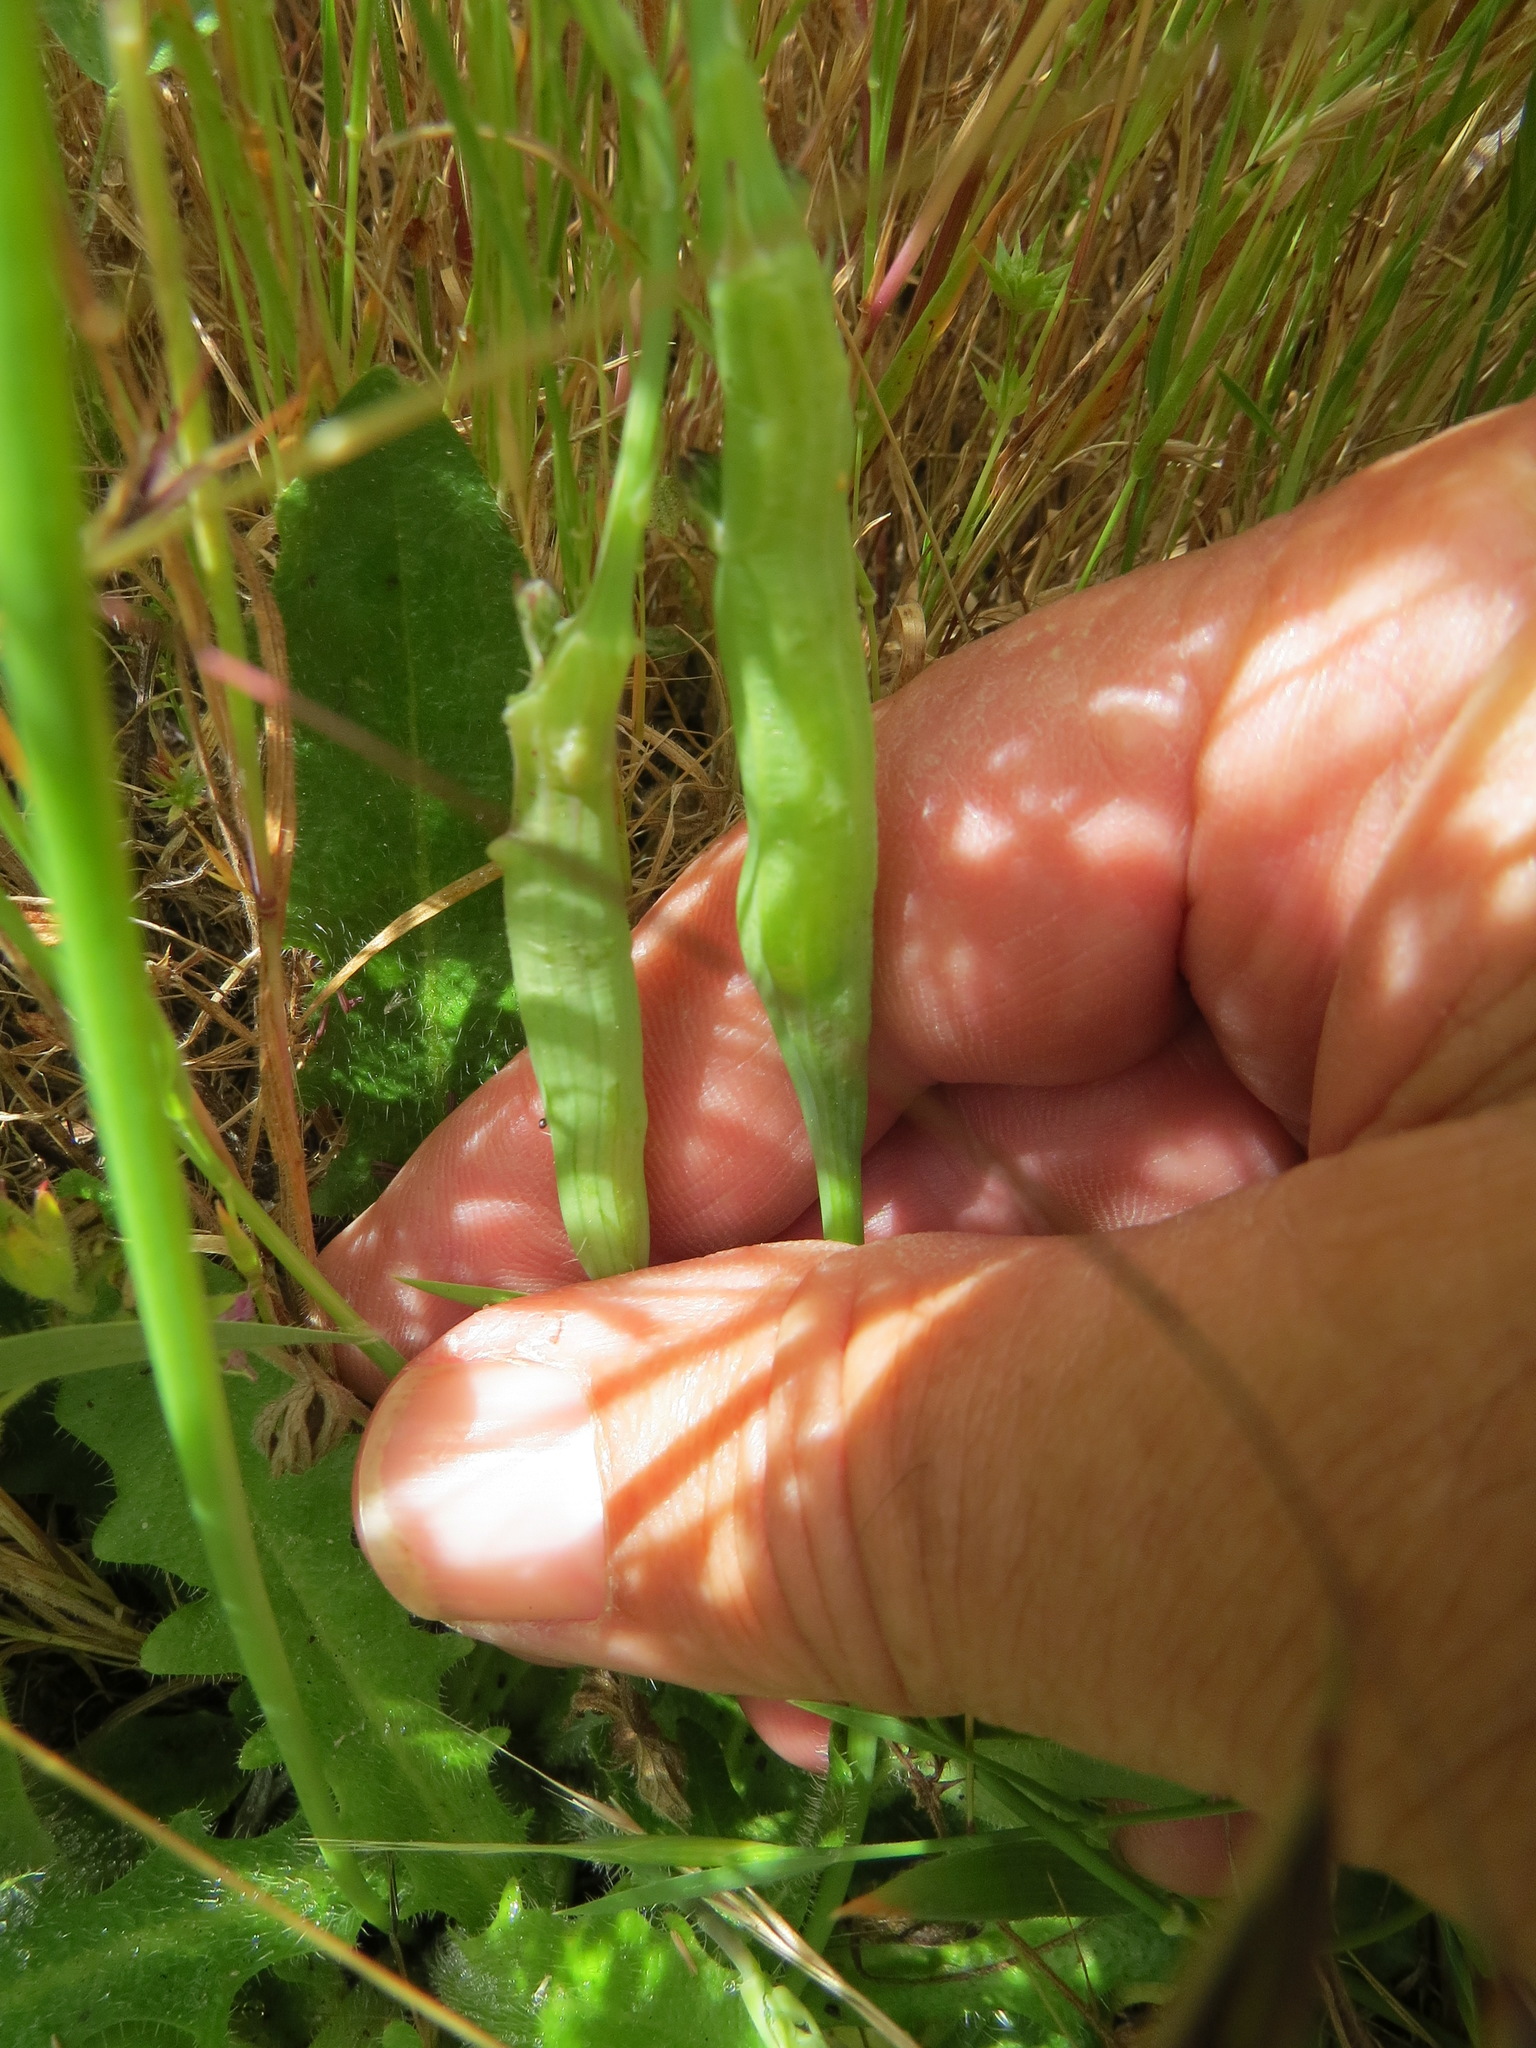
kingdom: Animalia
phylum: Arthropoda
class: Insecta
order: Hymenoptera
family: Cynipidae
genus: Phanacis
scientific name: Phanacis hypochoeridis
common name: Gall wasp
